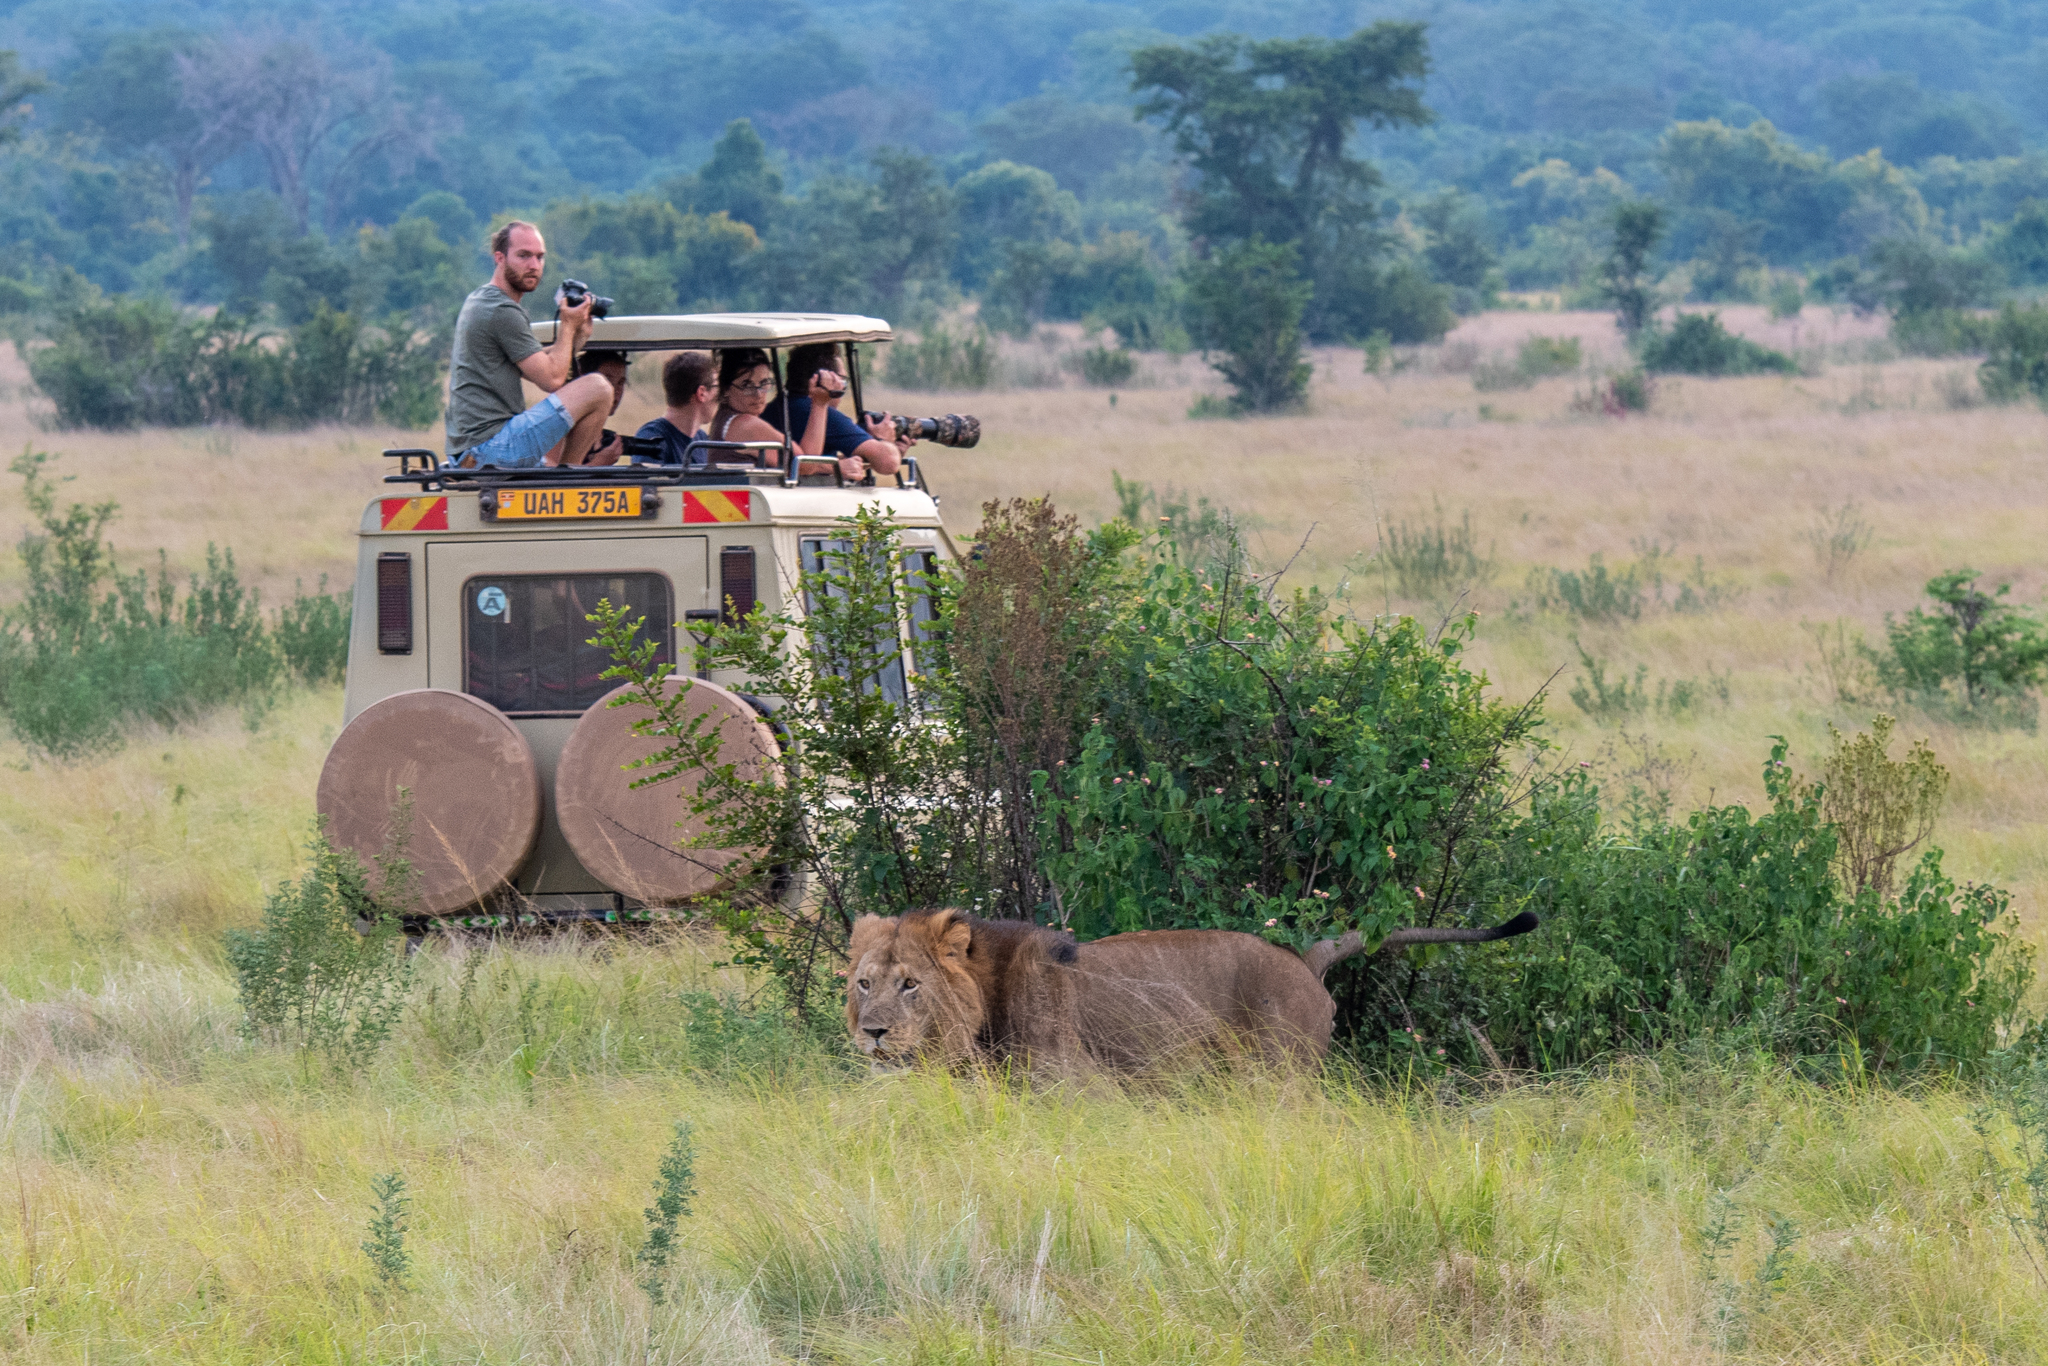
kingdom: Animalia
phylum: Chordata
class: Mammalia
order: Carnivora
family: Felidae
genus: Panthera
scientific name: Panthera leo
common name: Lion
